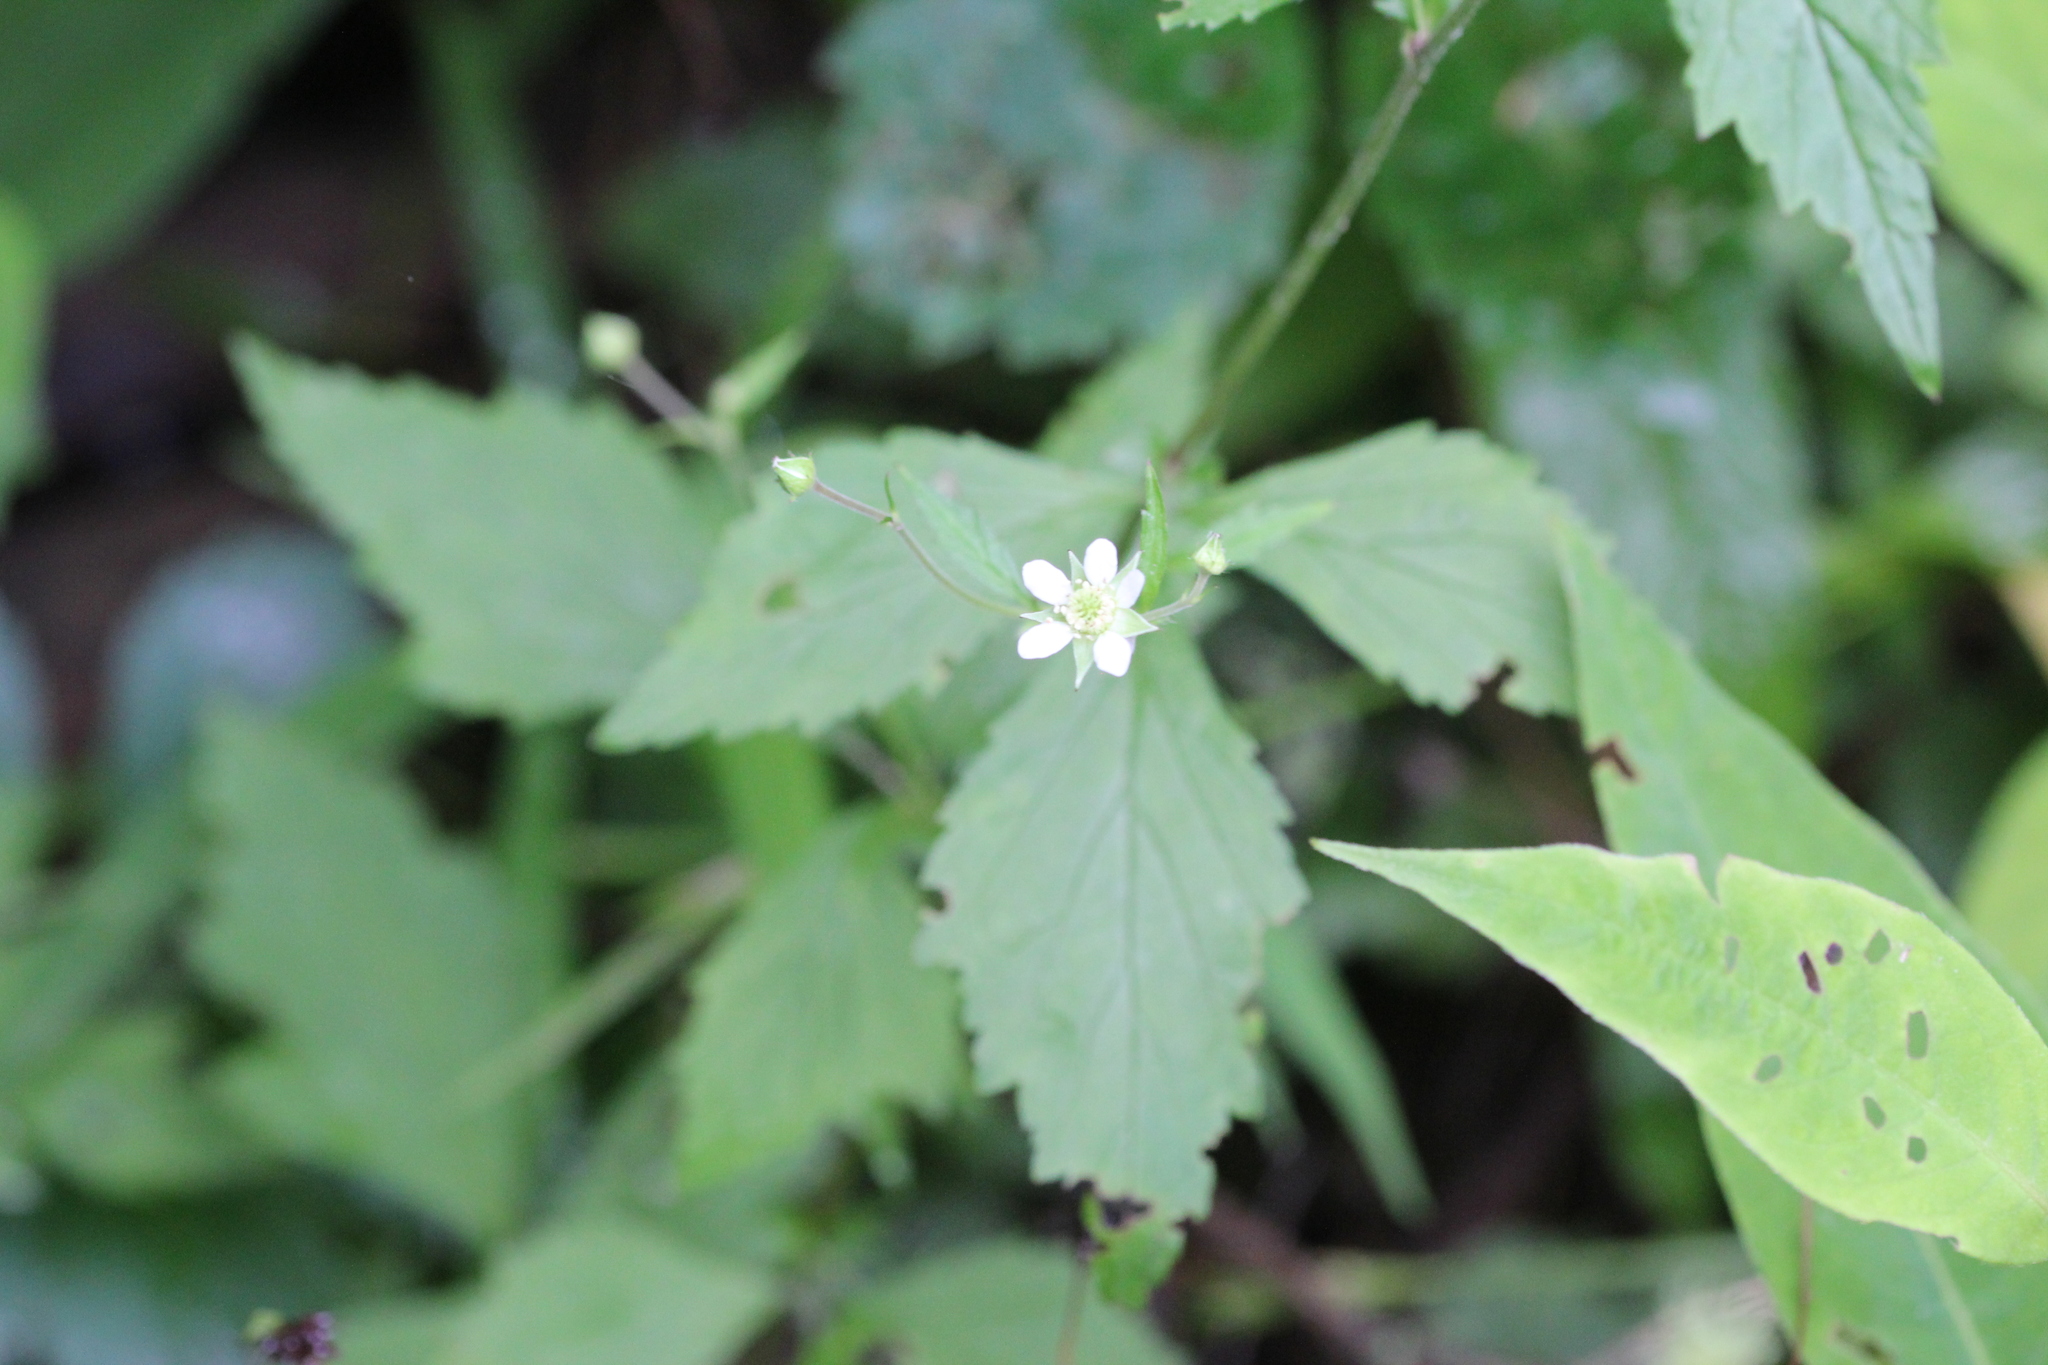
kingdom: Plantae
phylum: Tracheophyta
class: Magnoliopsida
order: Rosales
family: Rosaceae
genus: Geum
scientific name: Geum canadense
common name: White avens
